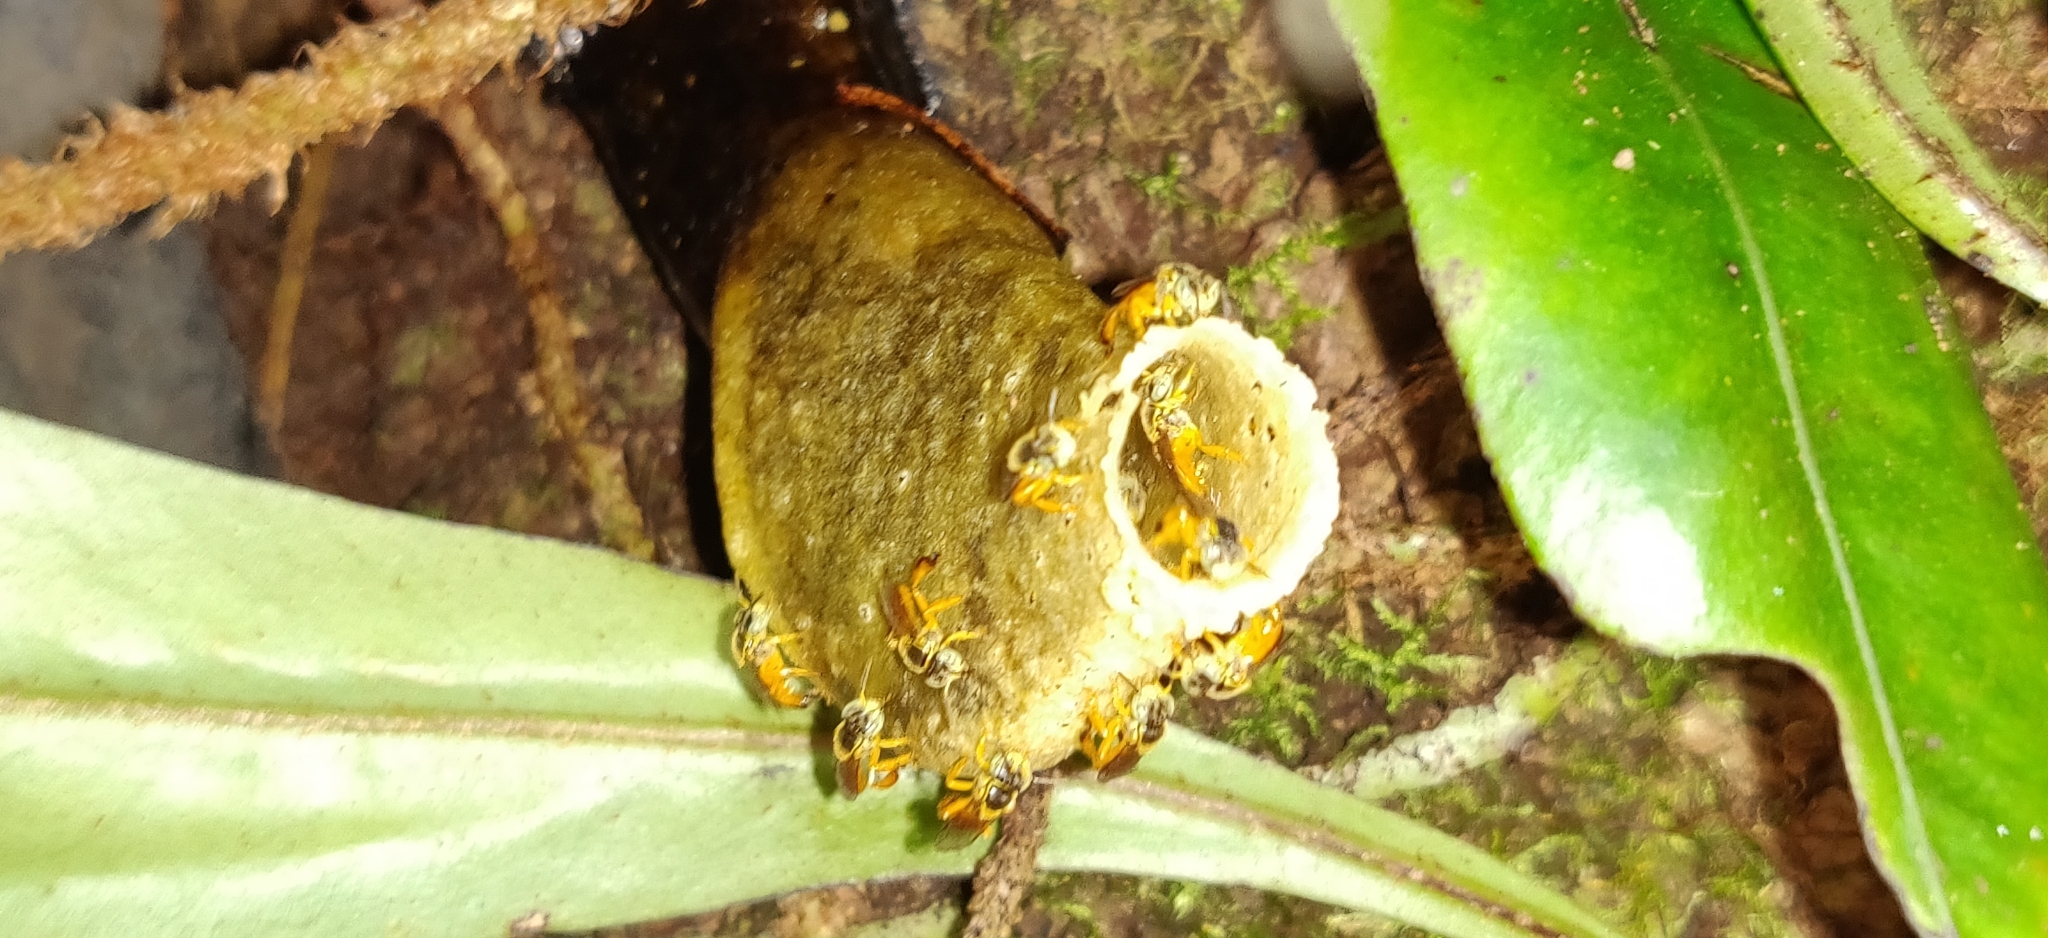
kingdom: Animalia
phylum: Arthropoda
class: Insecta
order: Hymenoptera
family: Apidae
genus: Tetragonisca
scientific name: Tetragonisca angustula
